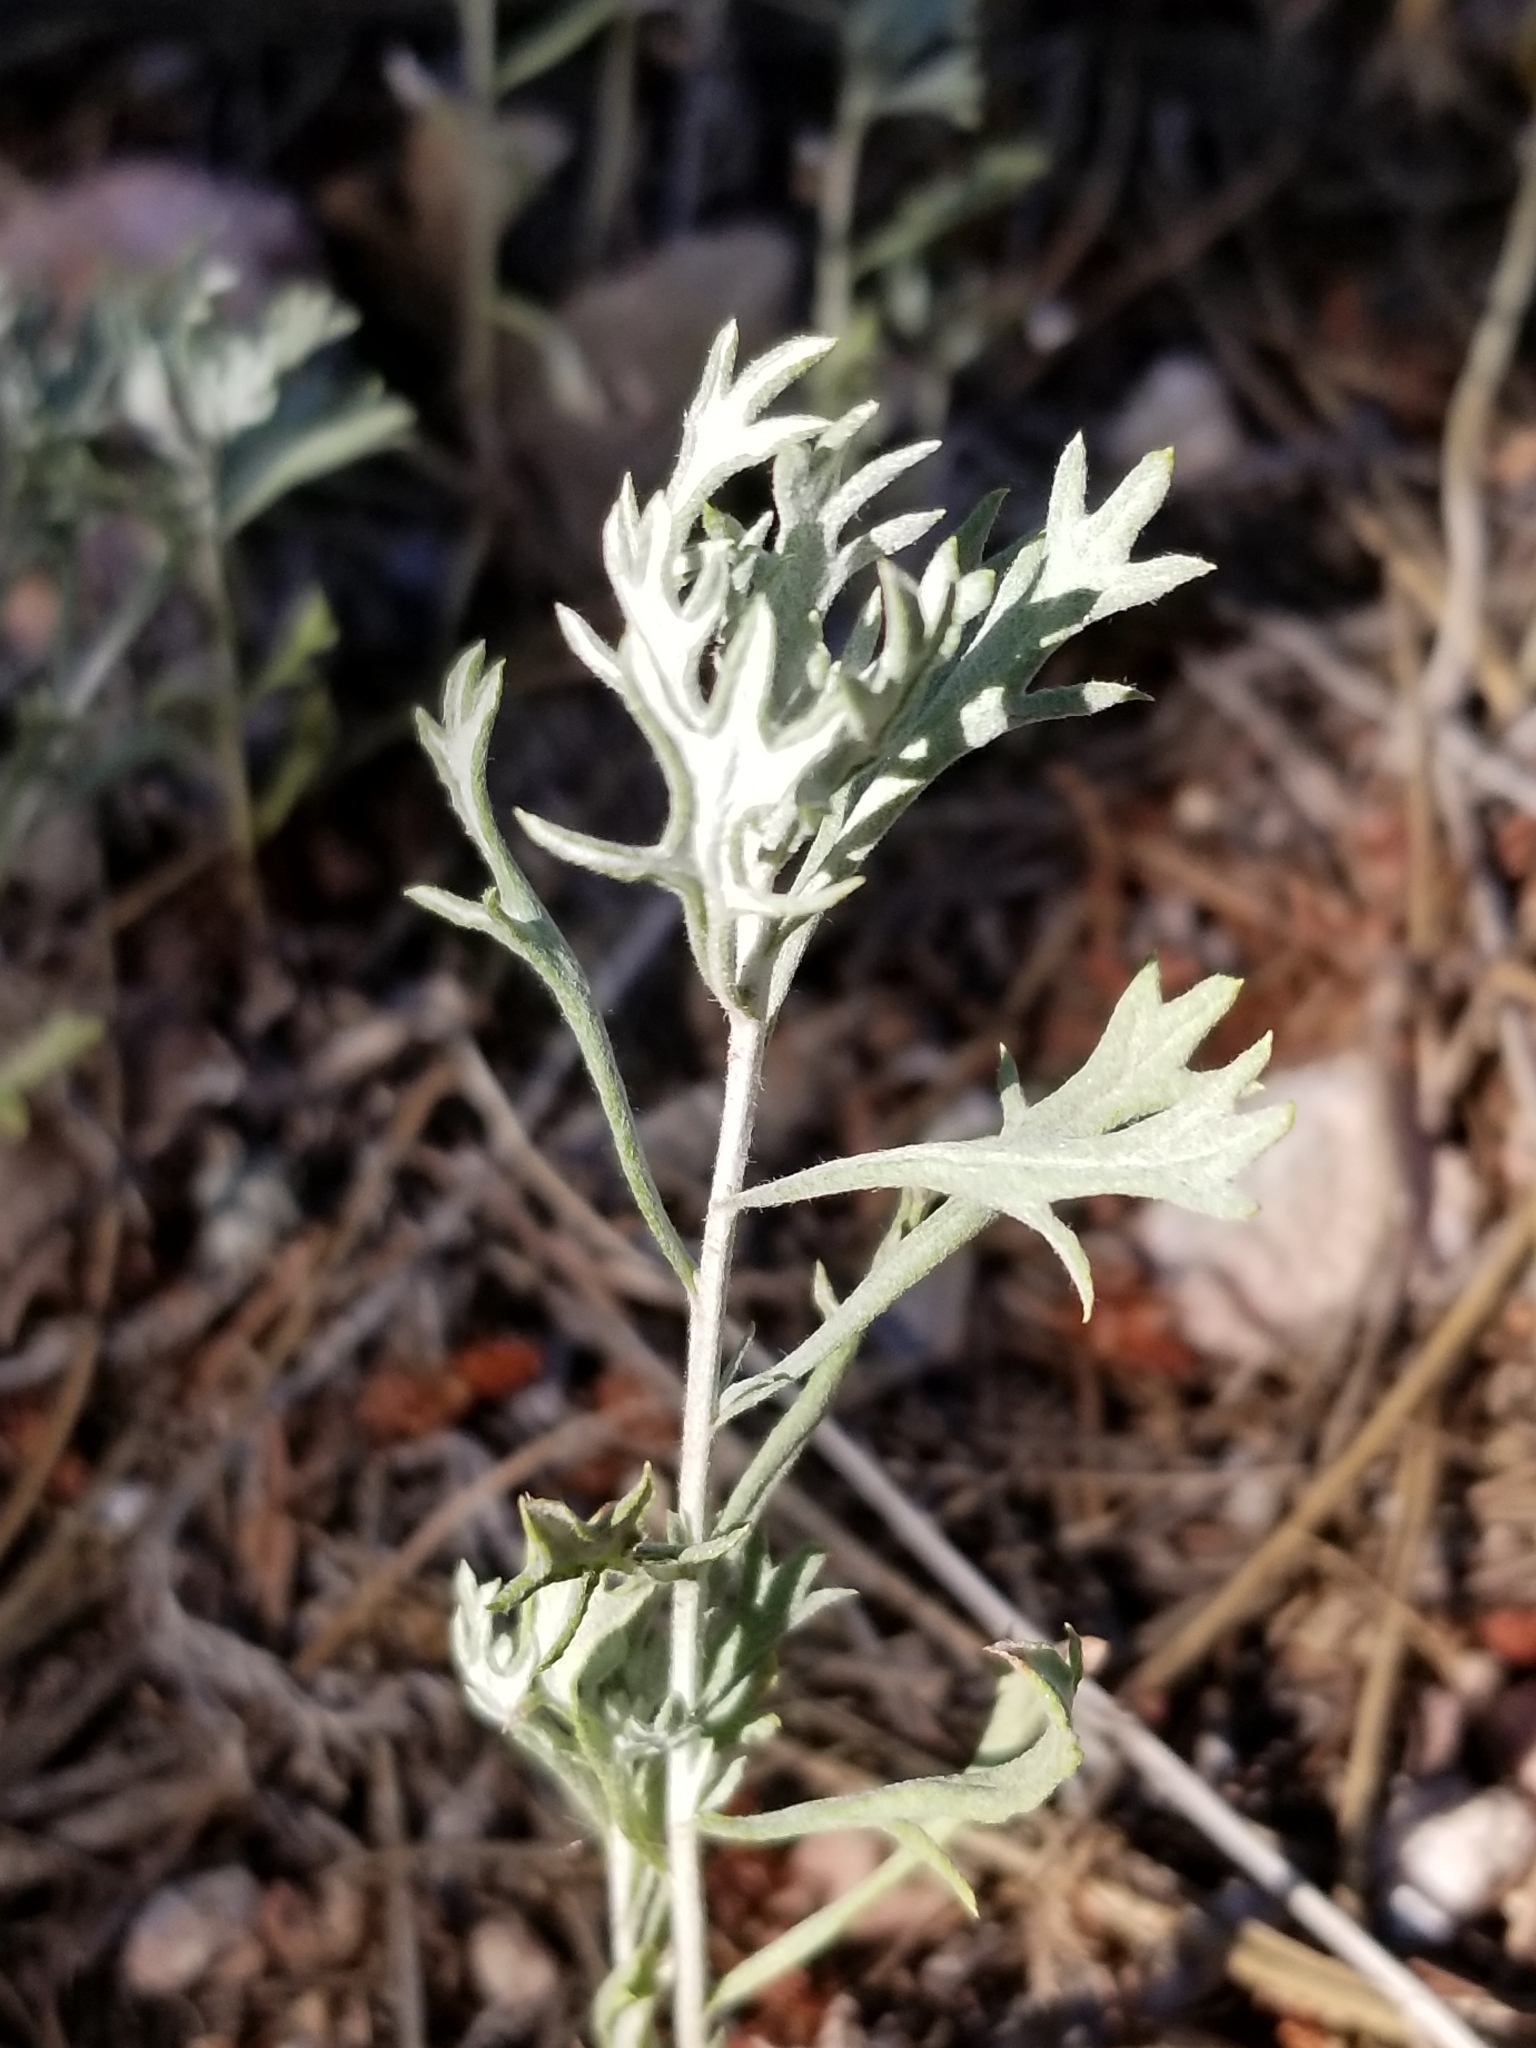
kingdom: Plantae
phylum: Tracheophyta
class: Magnoliopsida
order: Asterales
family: Asteraceae
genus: Artemisia
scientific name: Artemisia ludoviciana
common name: Western mugwort
